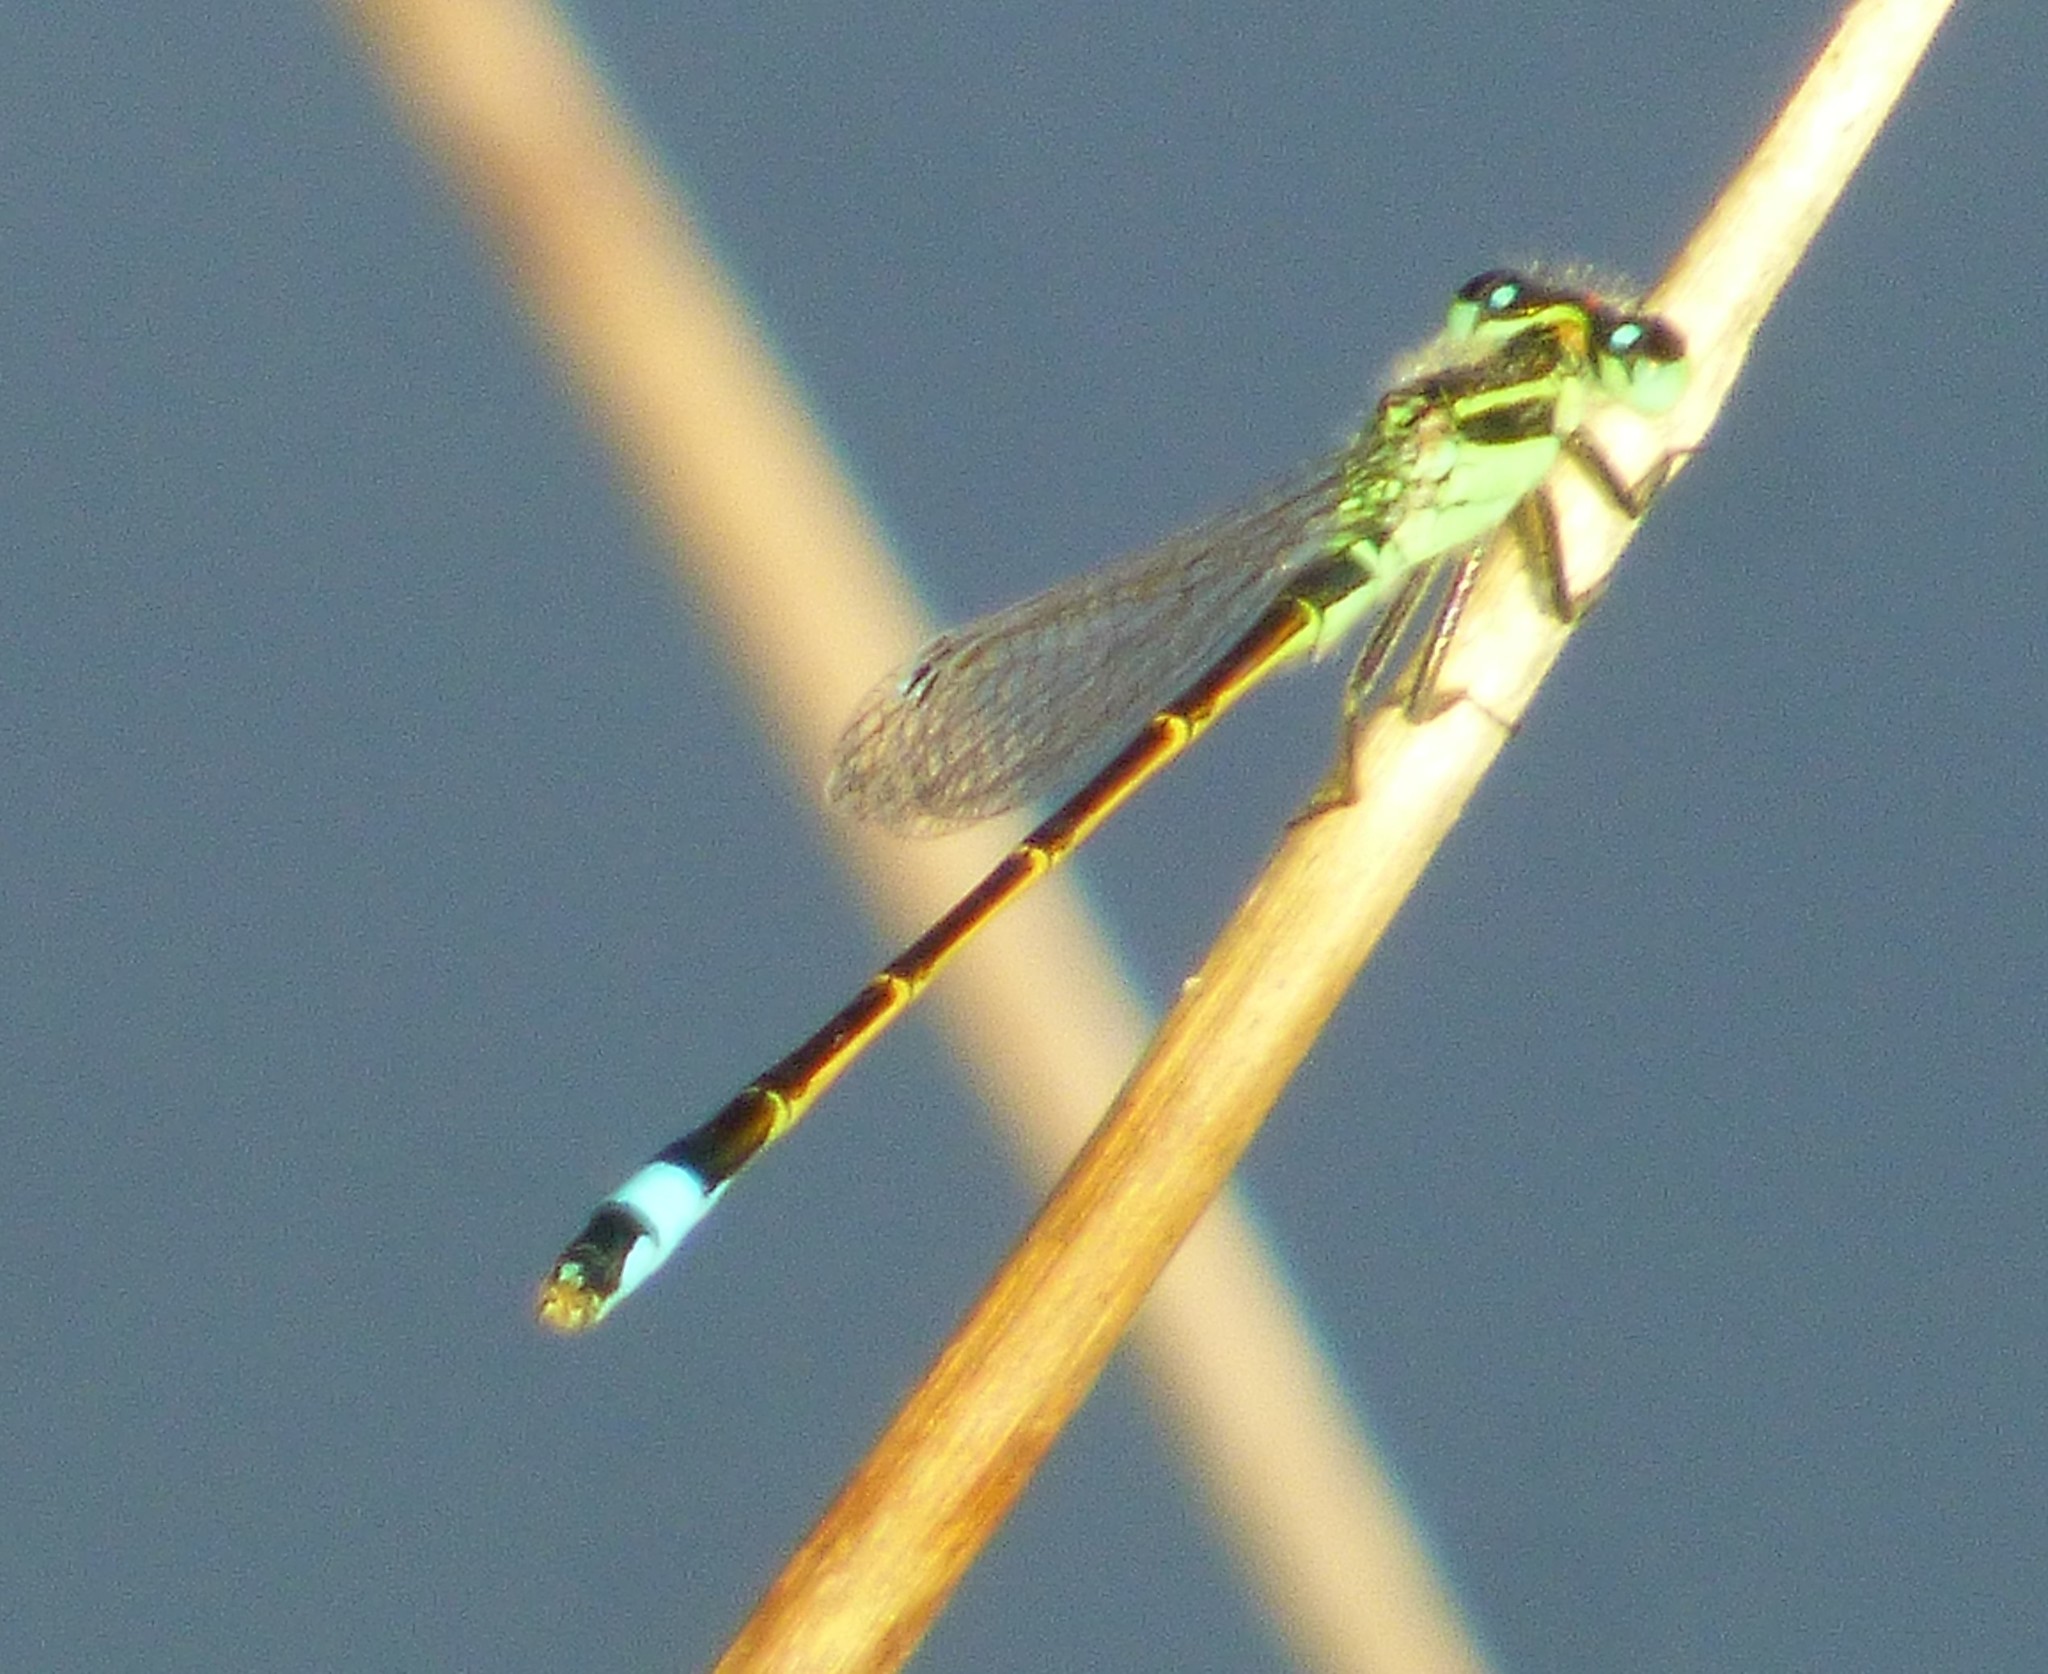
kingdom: Animalia
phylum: Arthropoda
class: Insecta
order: Odonata
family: Coenagrionidae
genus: Ischnura
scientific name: Ischnura ramburii
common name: Rambur's forktail
